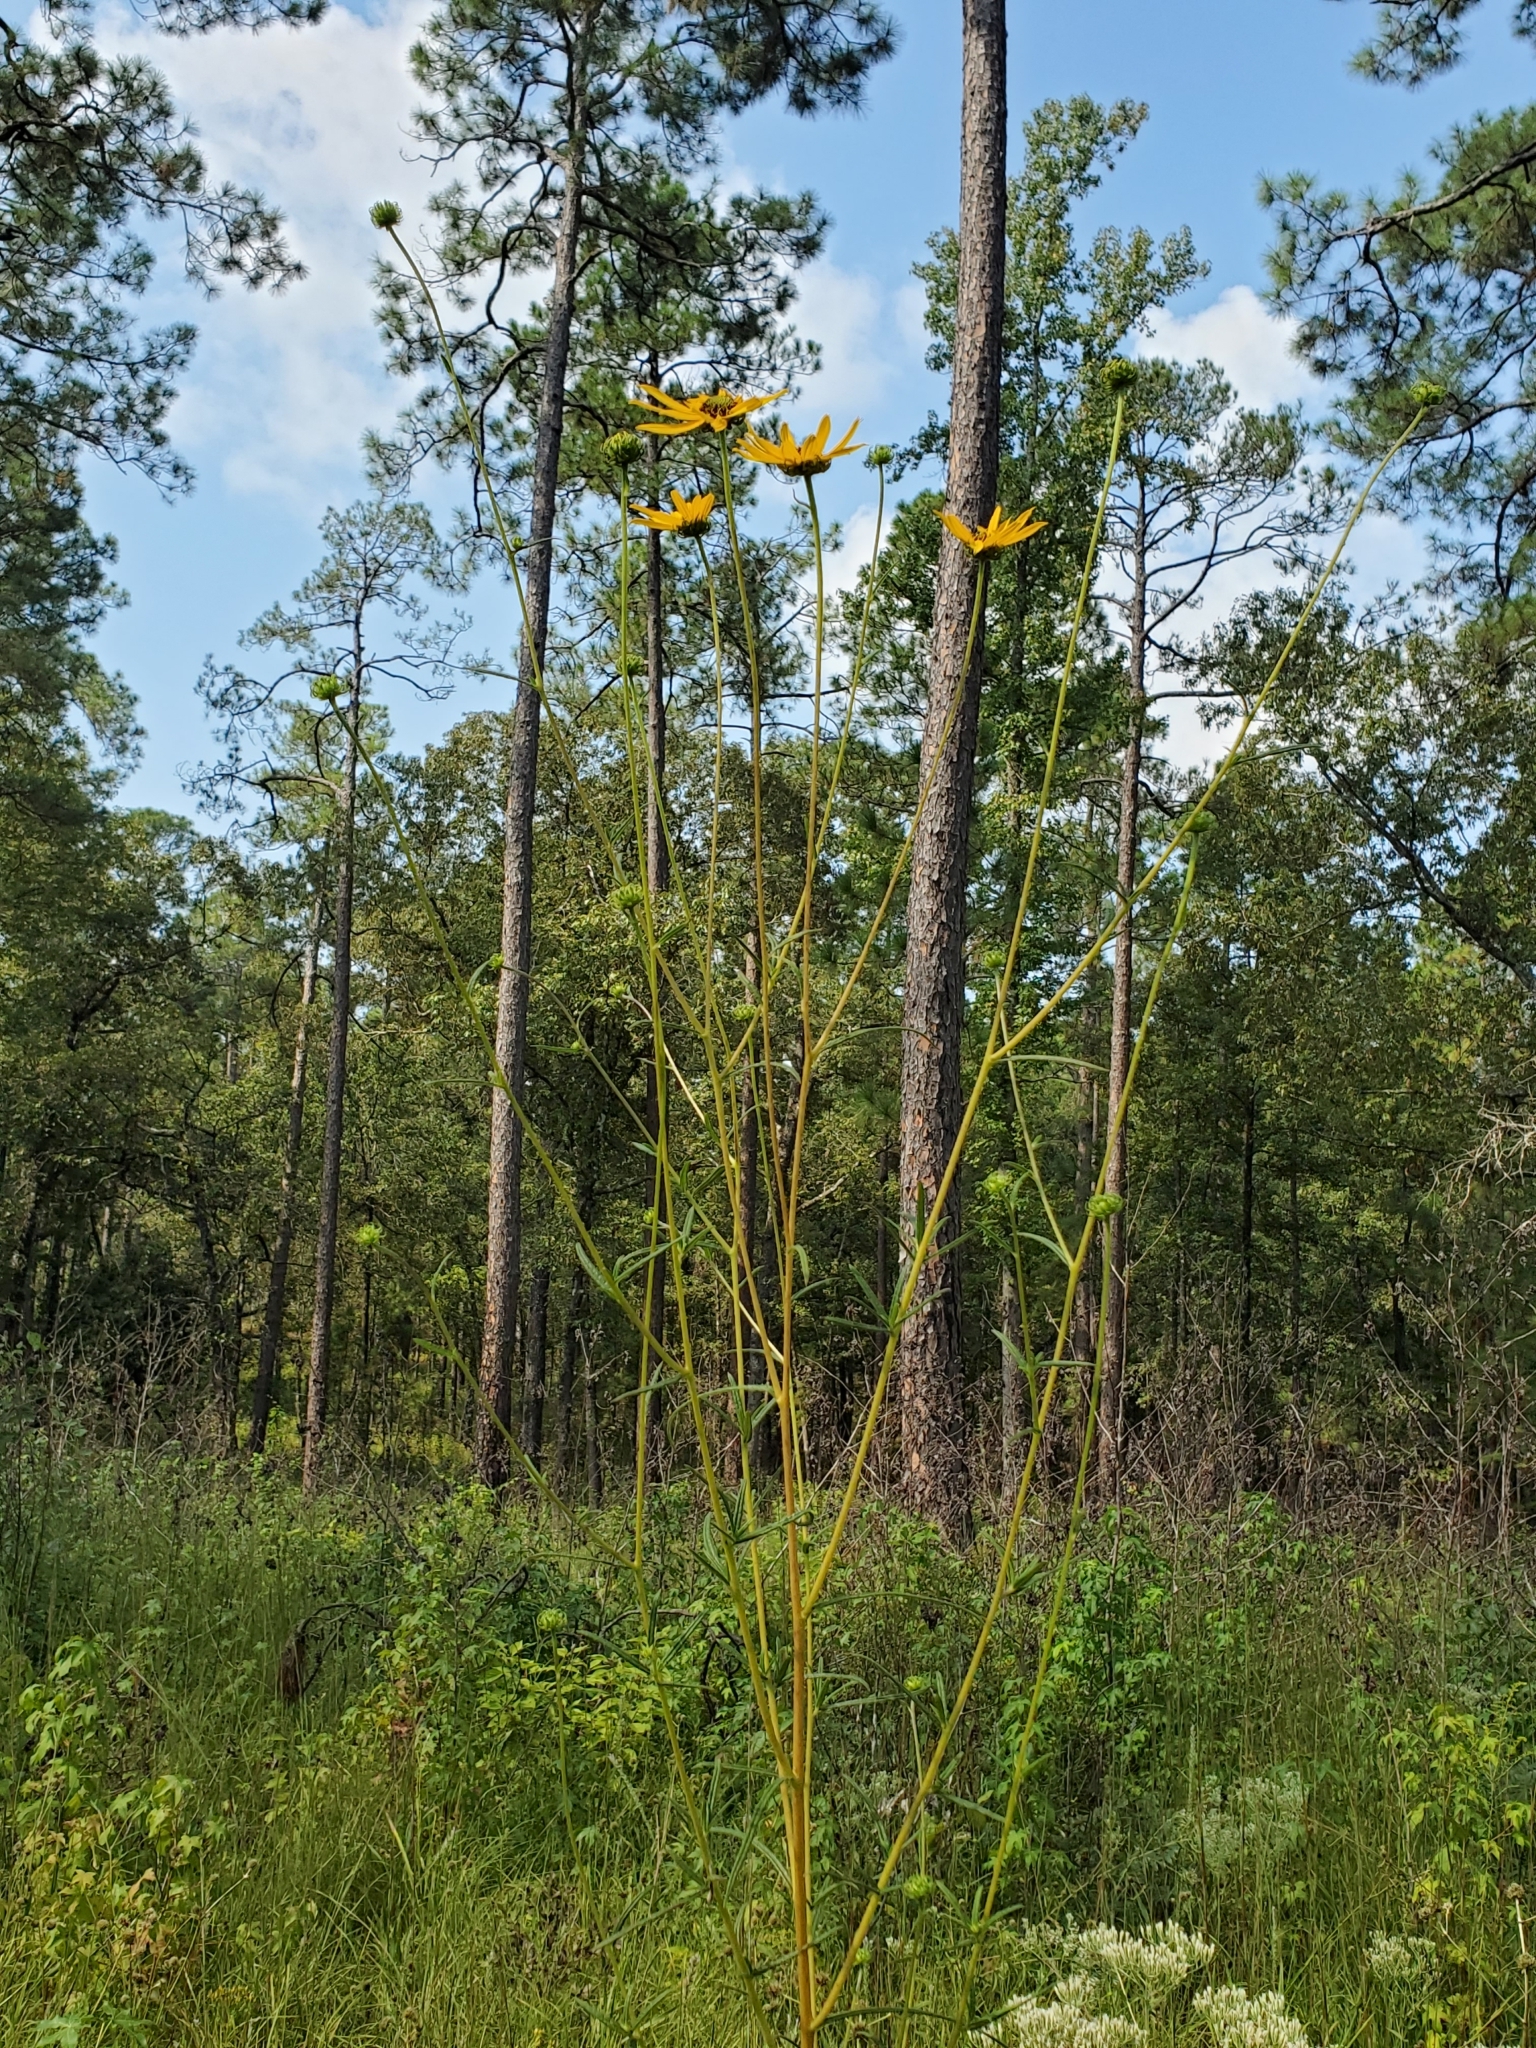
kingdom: Plantae
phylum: Tracheophyta
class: Magnoliopsida
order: Asterales
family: Asteraceae
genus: Helianthus
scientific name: Helianthus angustifolius
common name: Swamp sunflower
